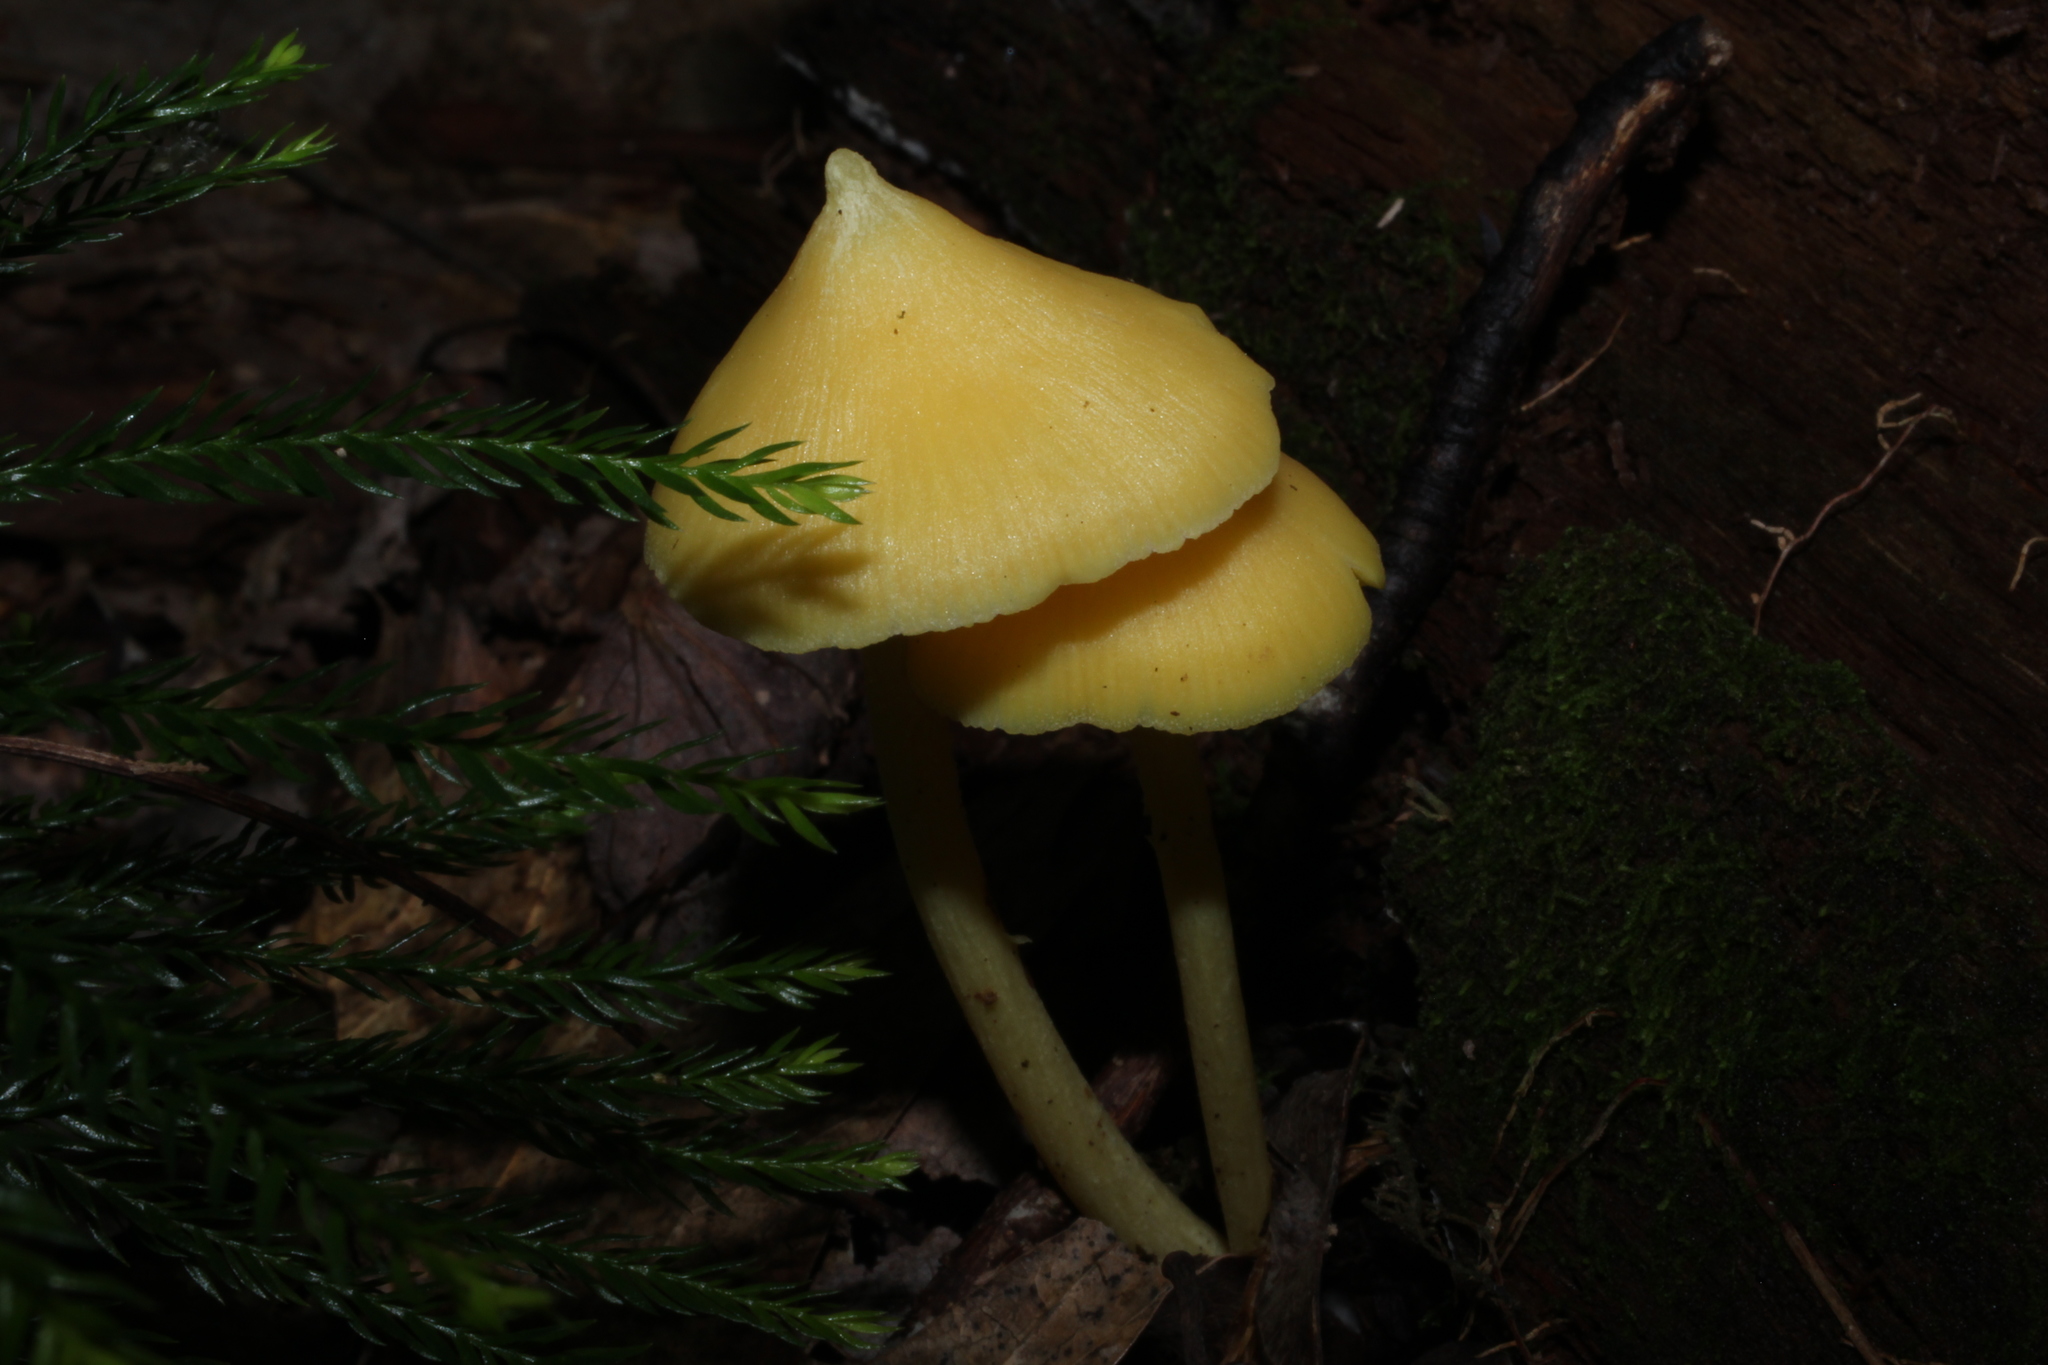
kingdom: Fungi
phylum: Basidiomycota
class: Agaricomycetes
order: Agaricales
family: Entolomataceae
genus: Entoloma
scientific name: Entoloma murrayi
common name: Yellow unicorn entoloma
